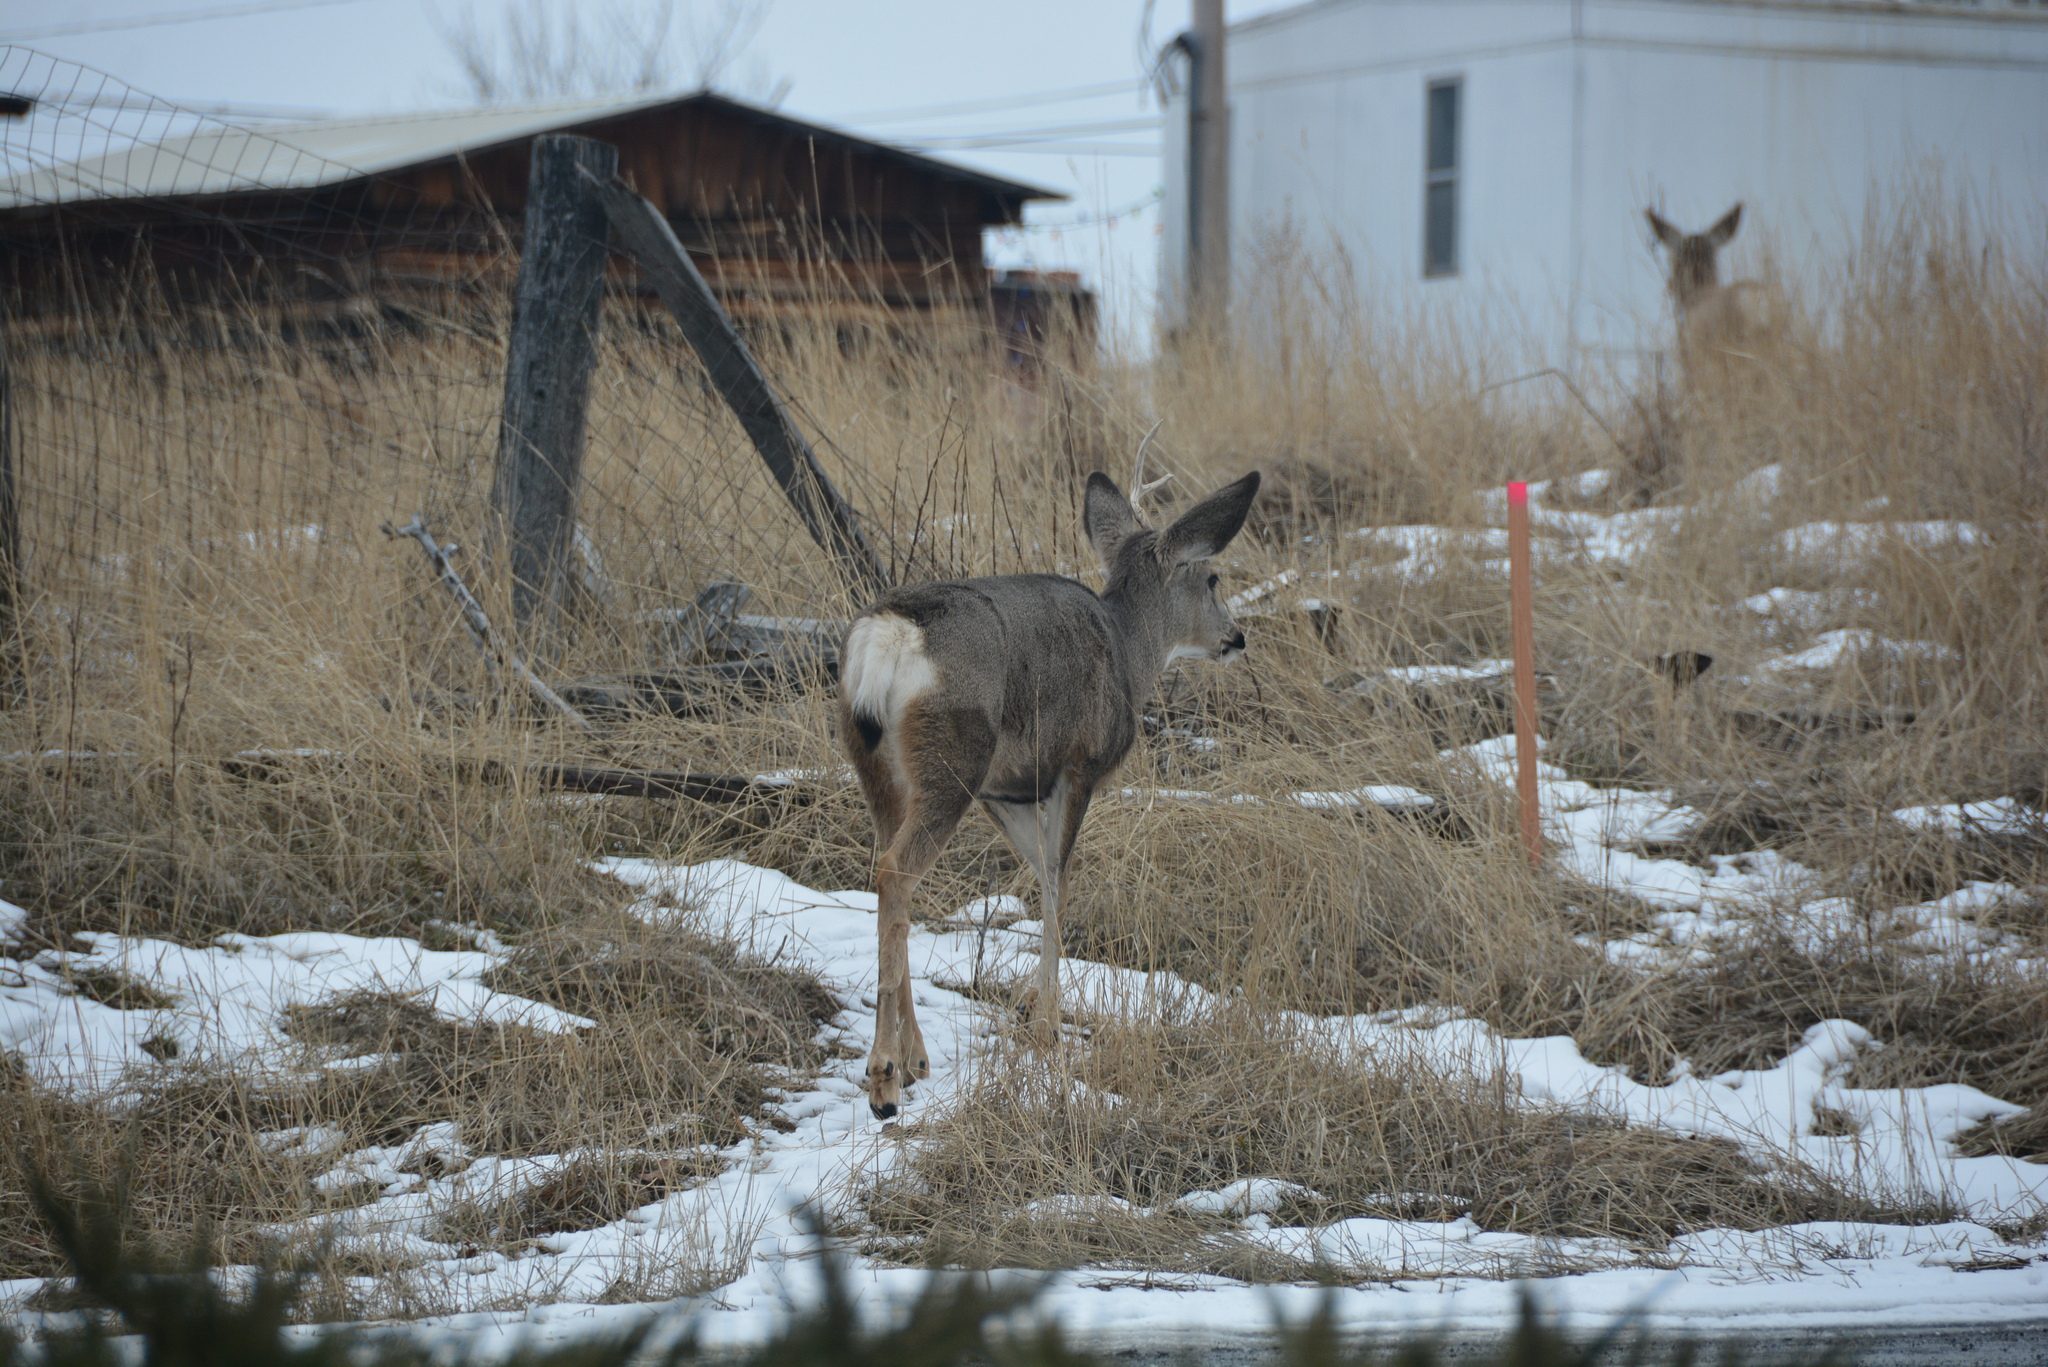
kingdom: Animalia
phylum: Chordata
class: Mammalia
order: Artiodactyla
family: Cervidae
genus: Odocoileus
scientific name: Odocoileus hemionus
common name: Mule deer
